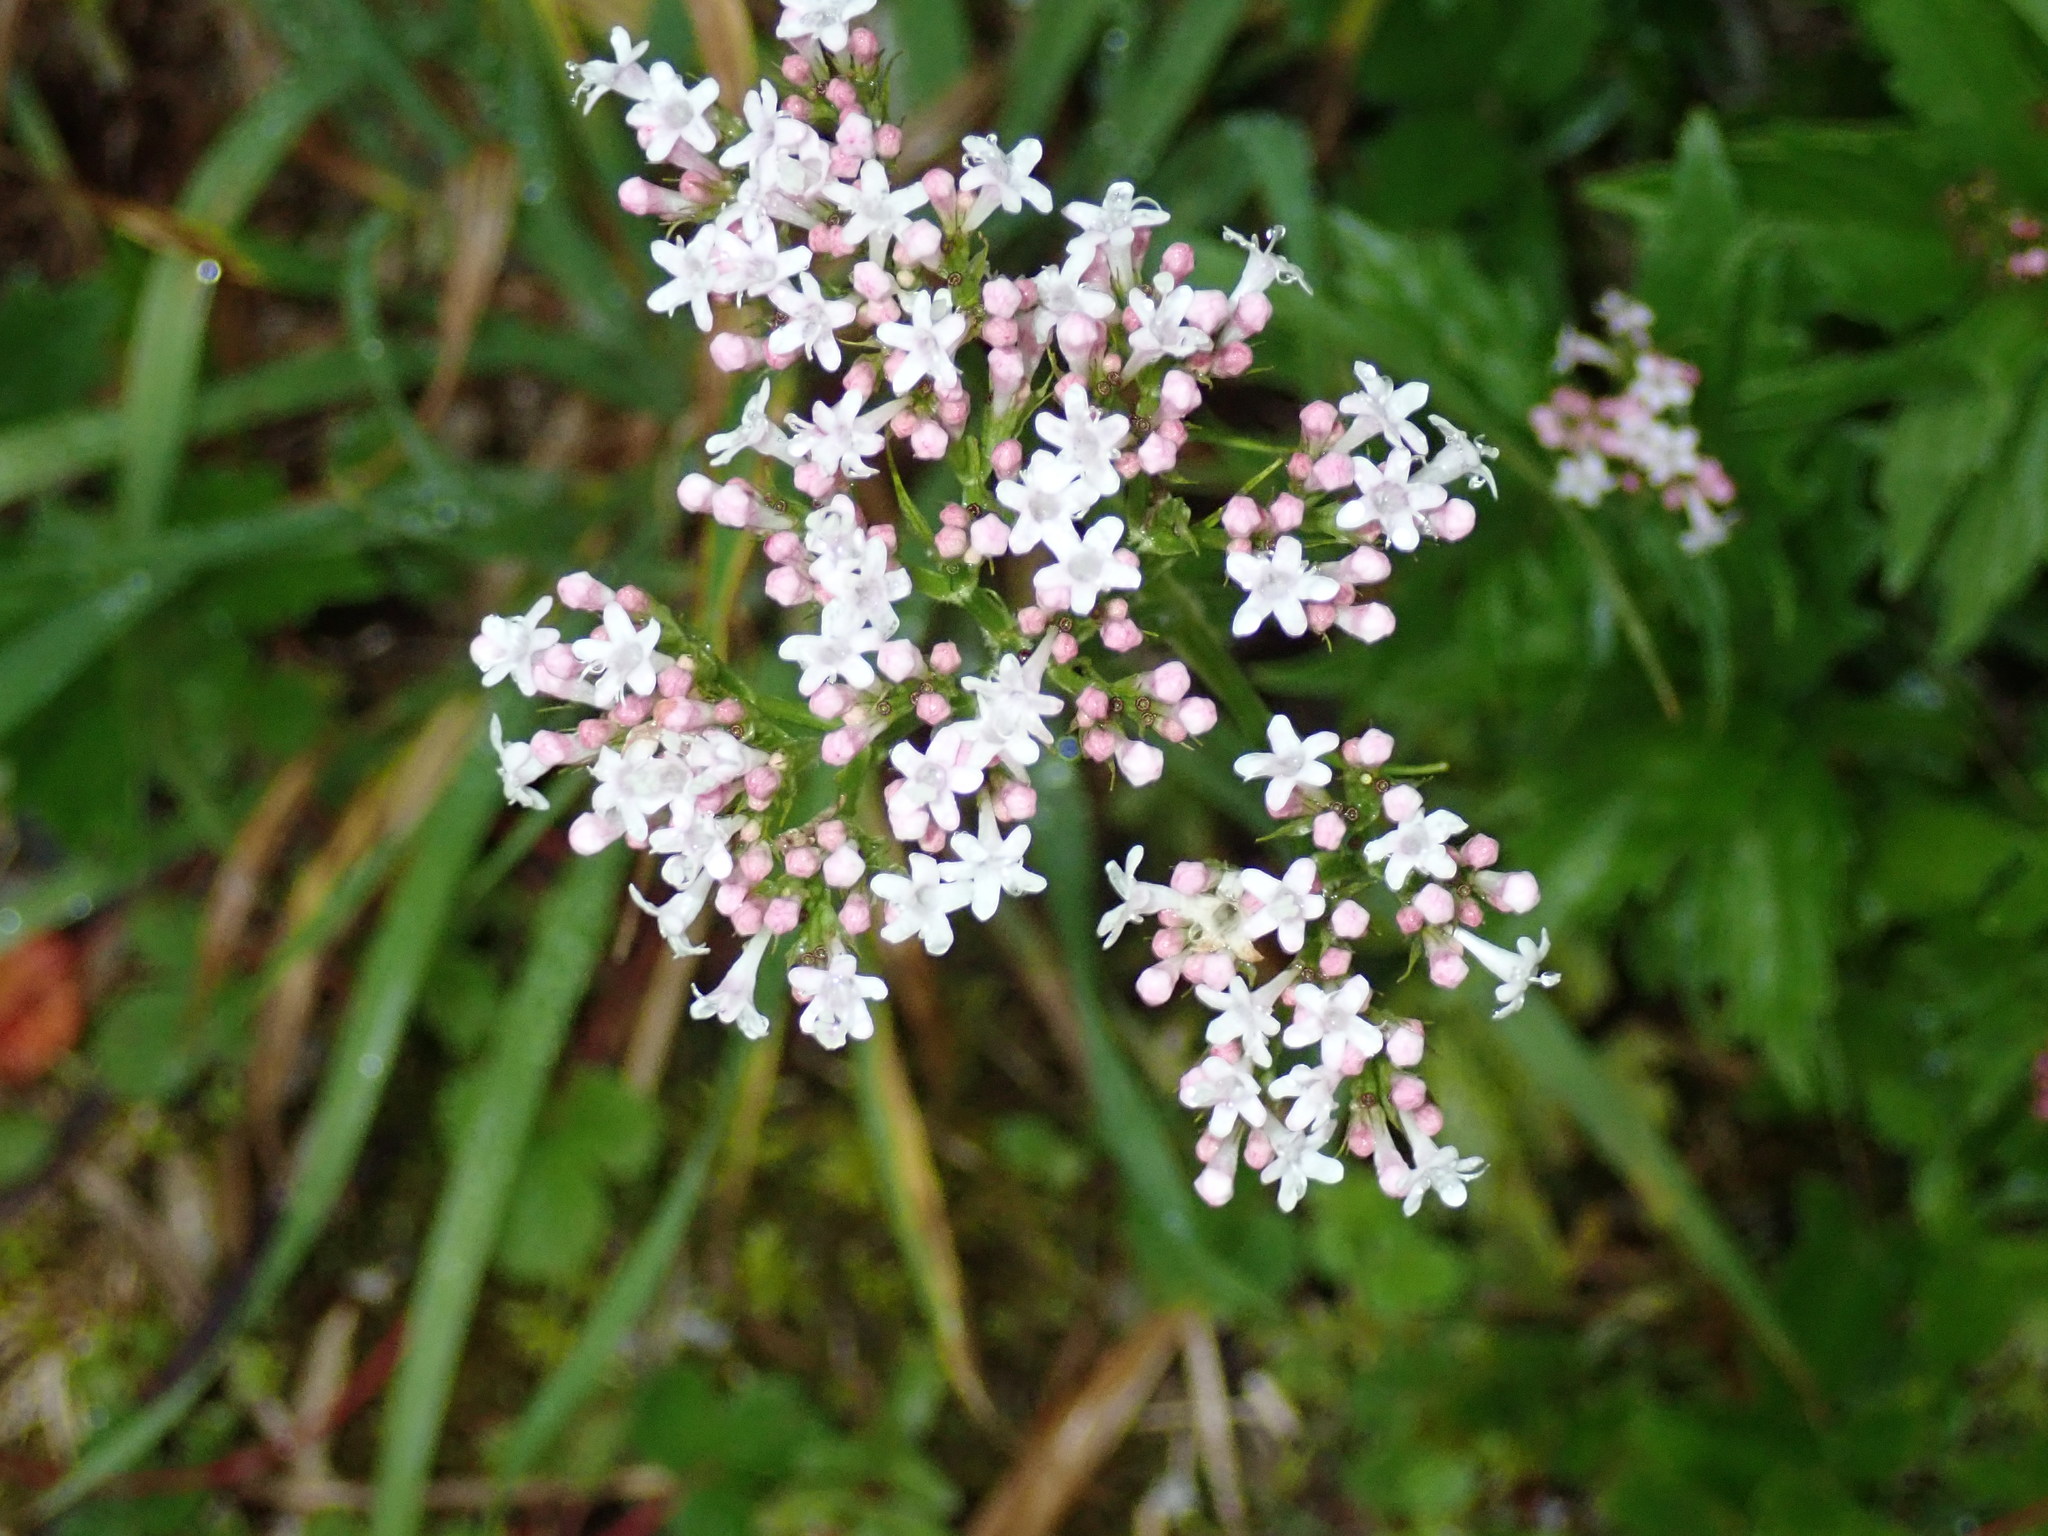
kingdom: Plantae
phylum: Tracheophyta
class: Magnoliopsida
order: Dipsacales
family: Caprifoliaceae
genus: Valeriana
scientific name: Valeriana officinalis
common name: Common valerian
